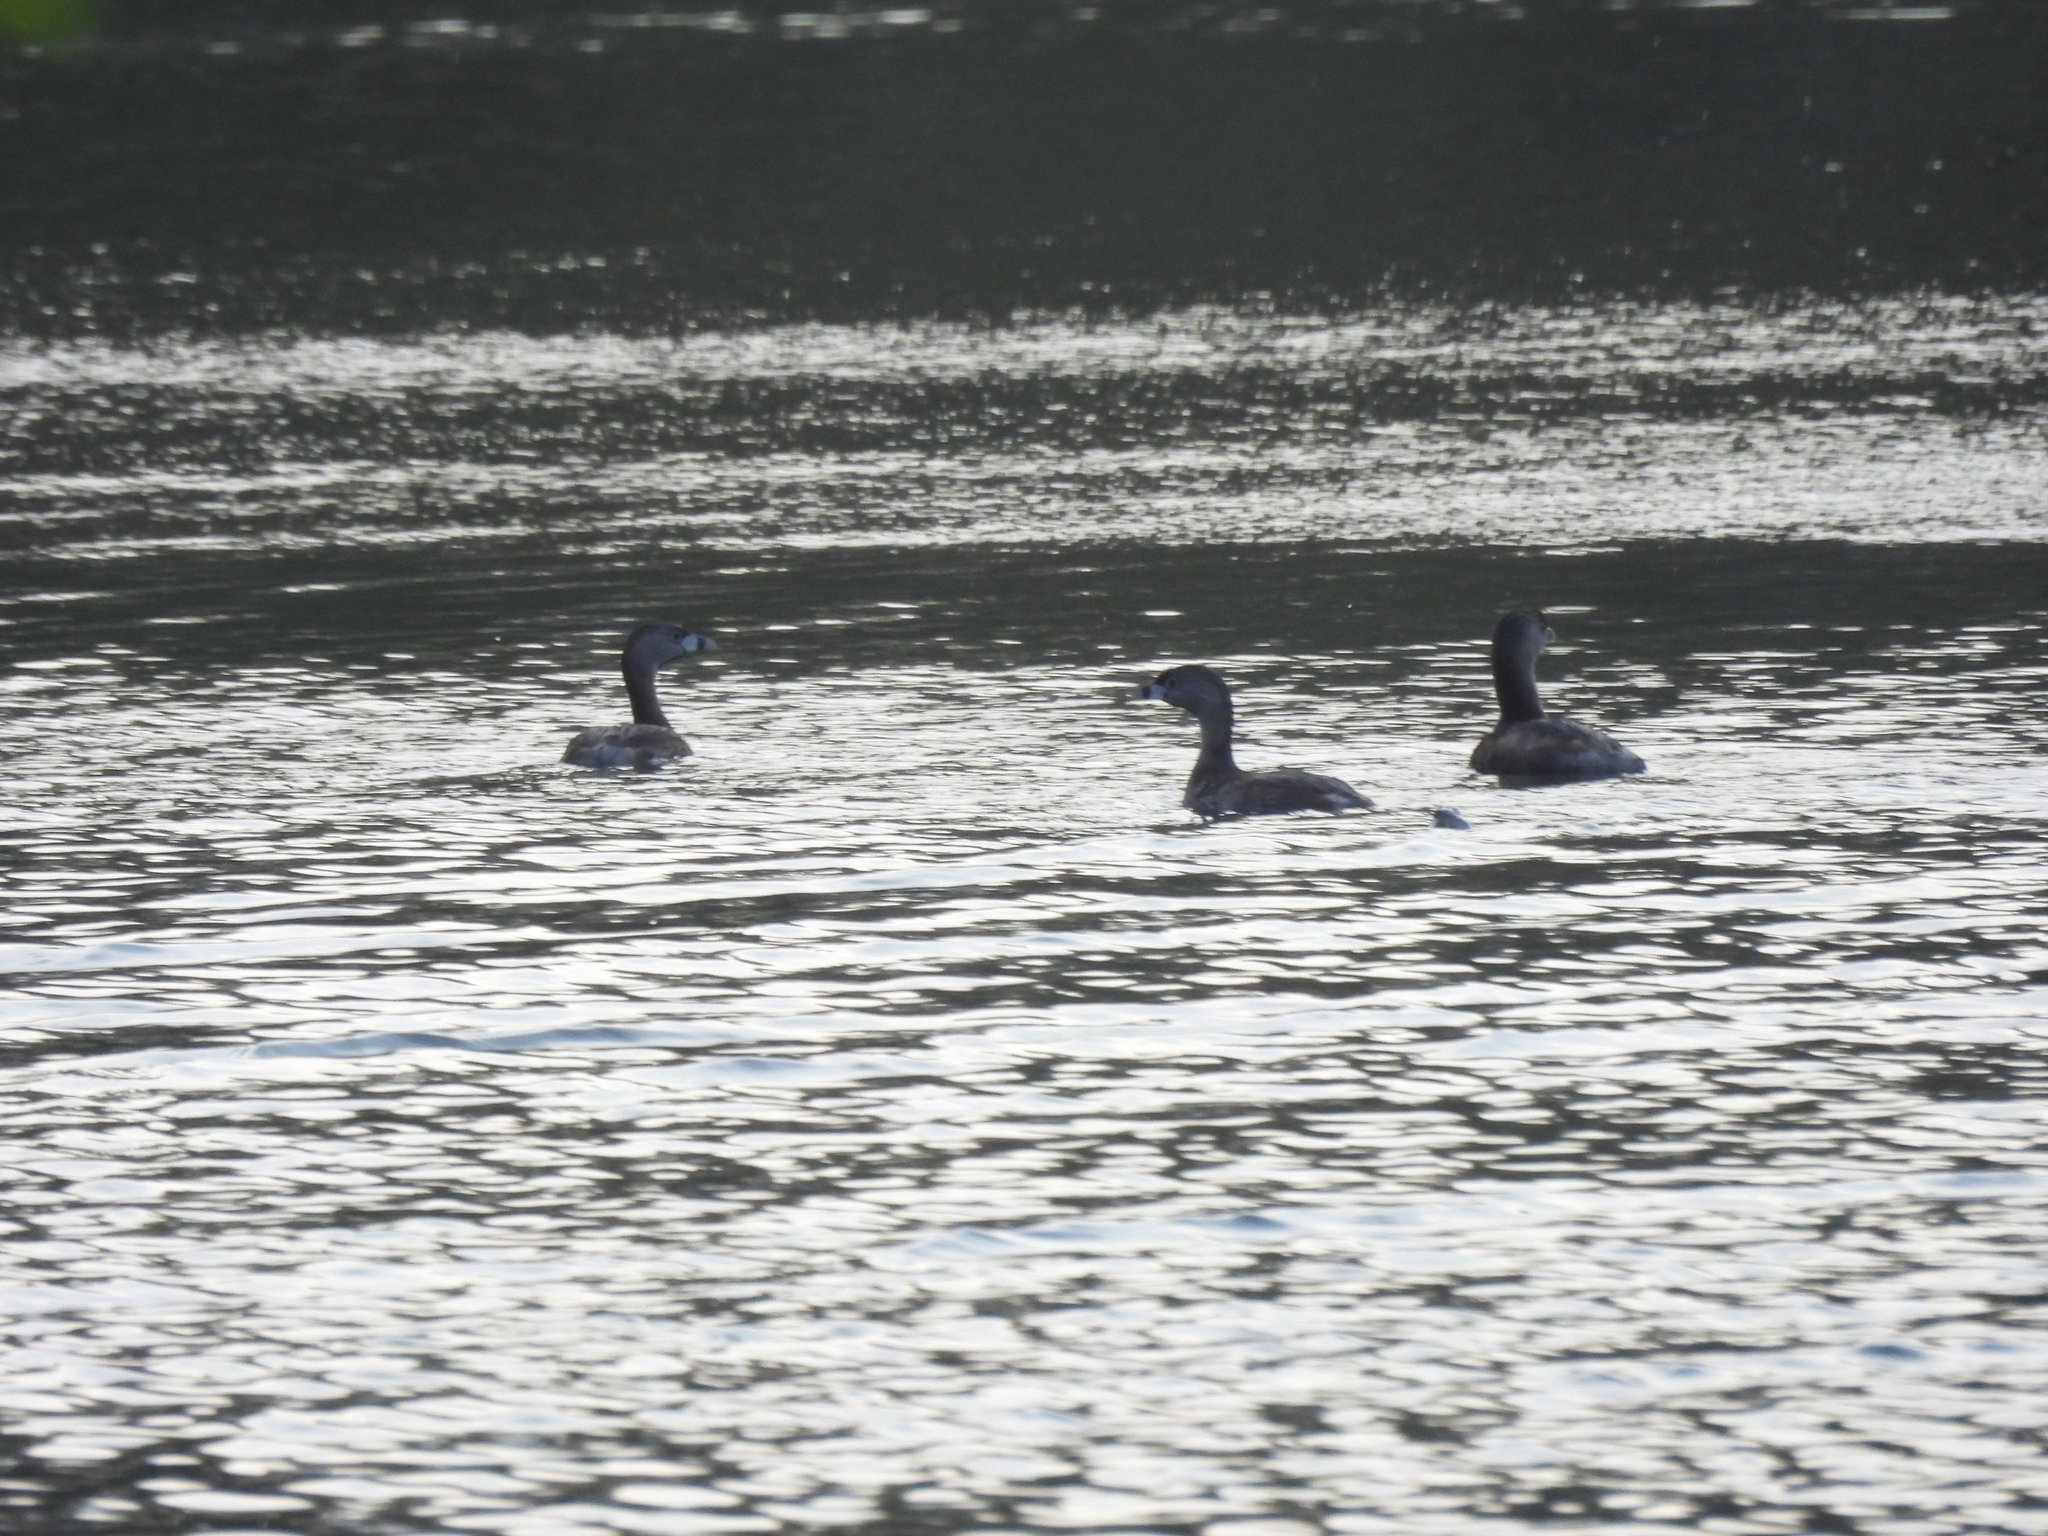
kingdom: Animalia
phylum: Chordata
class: Aves
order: Podicipediformes
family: Podicipedidae
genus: Podilymbus
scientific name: Podilymbus podiceps
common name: Pied-billed grebe
